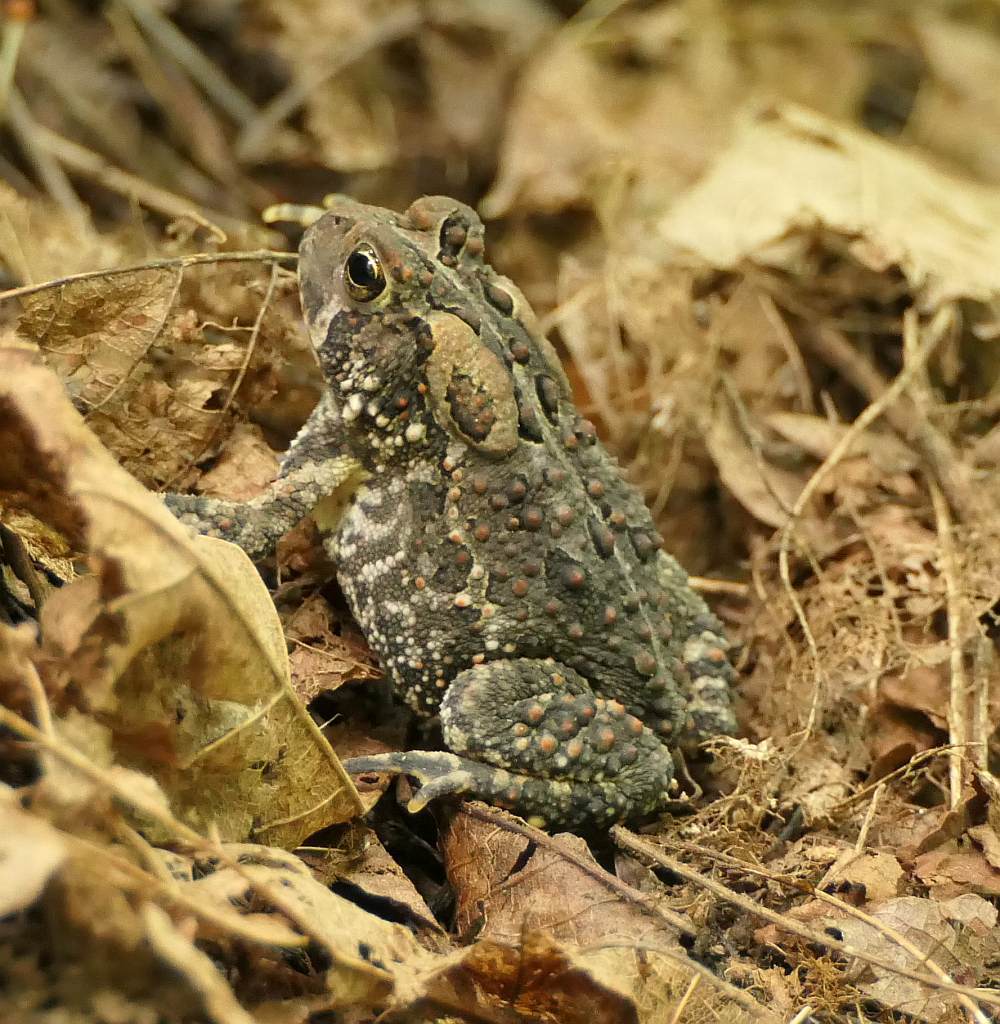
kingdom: Animalia
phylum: Chordata
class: Amphibia
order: Anura
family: Bufonidae
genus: Anaxyrus
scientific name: Anaxyrus americanus
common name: American toad
